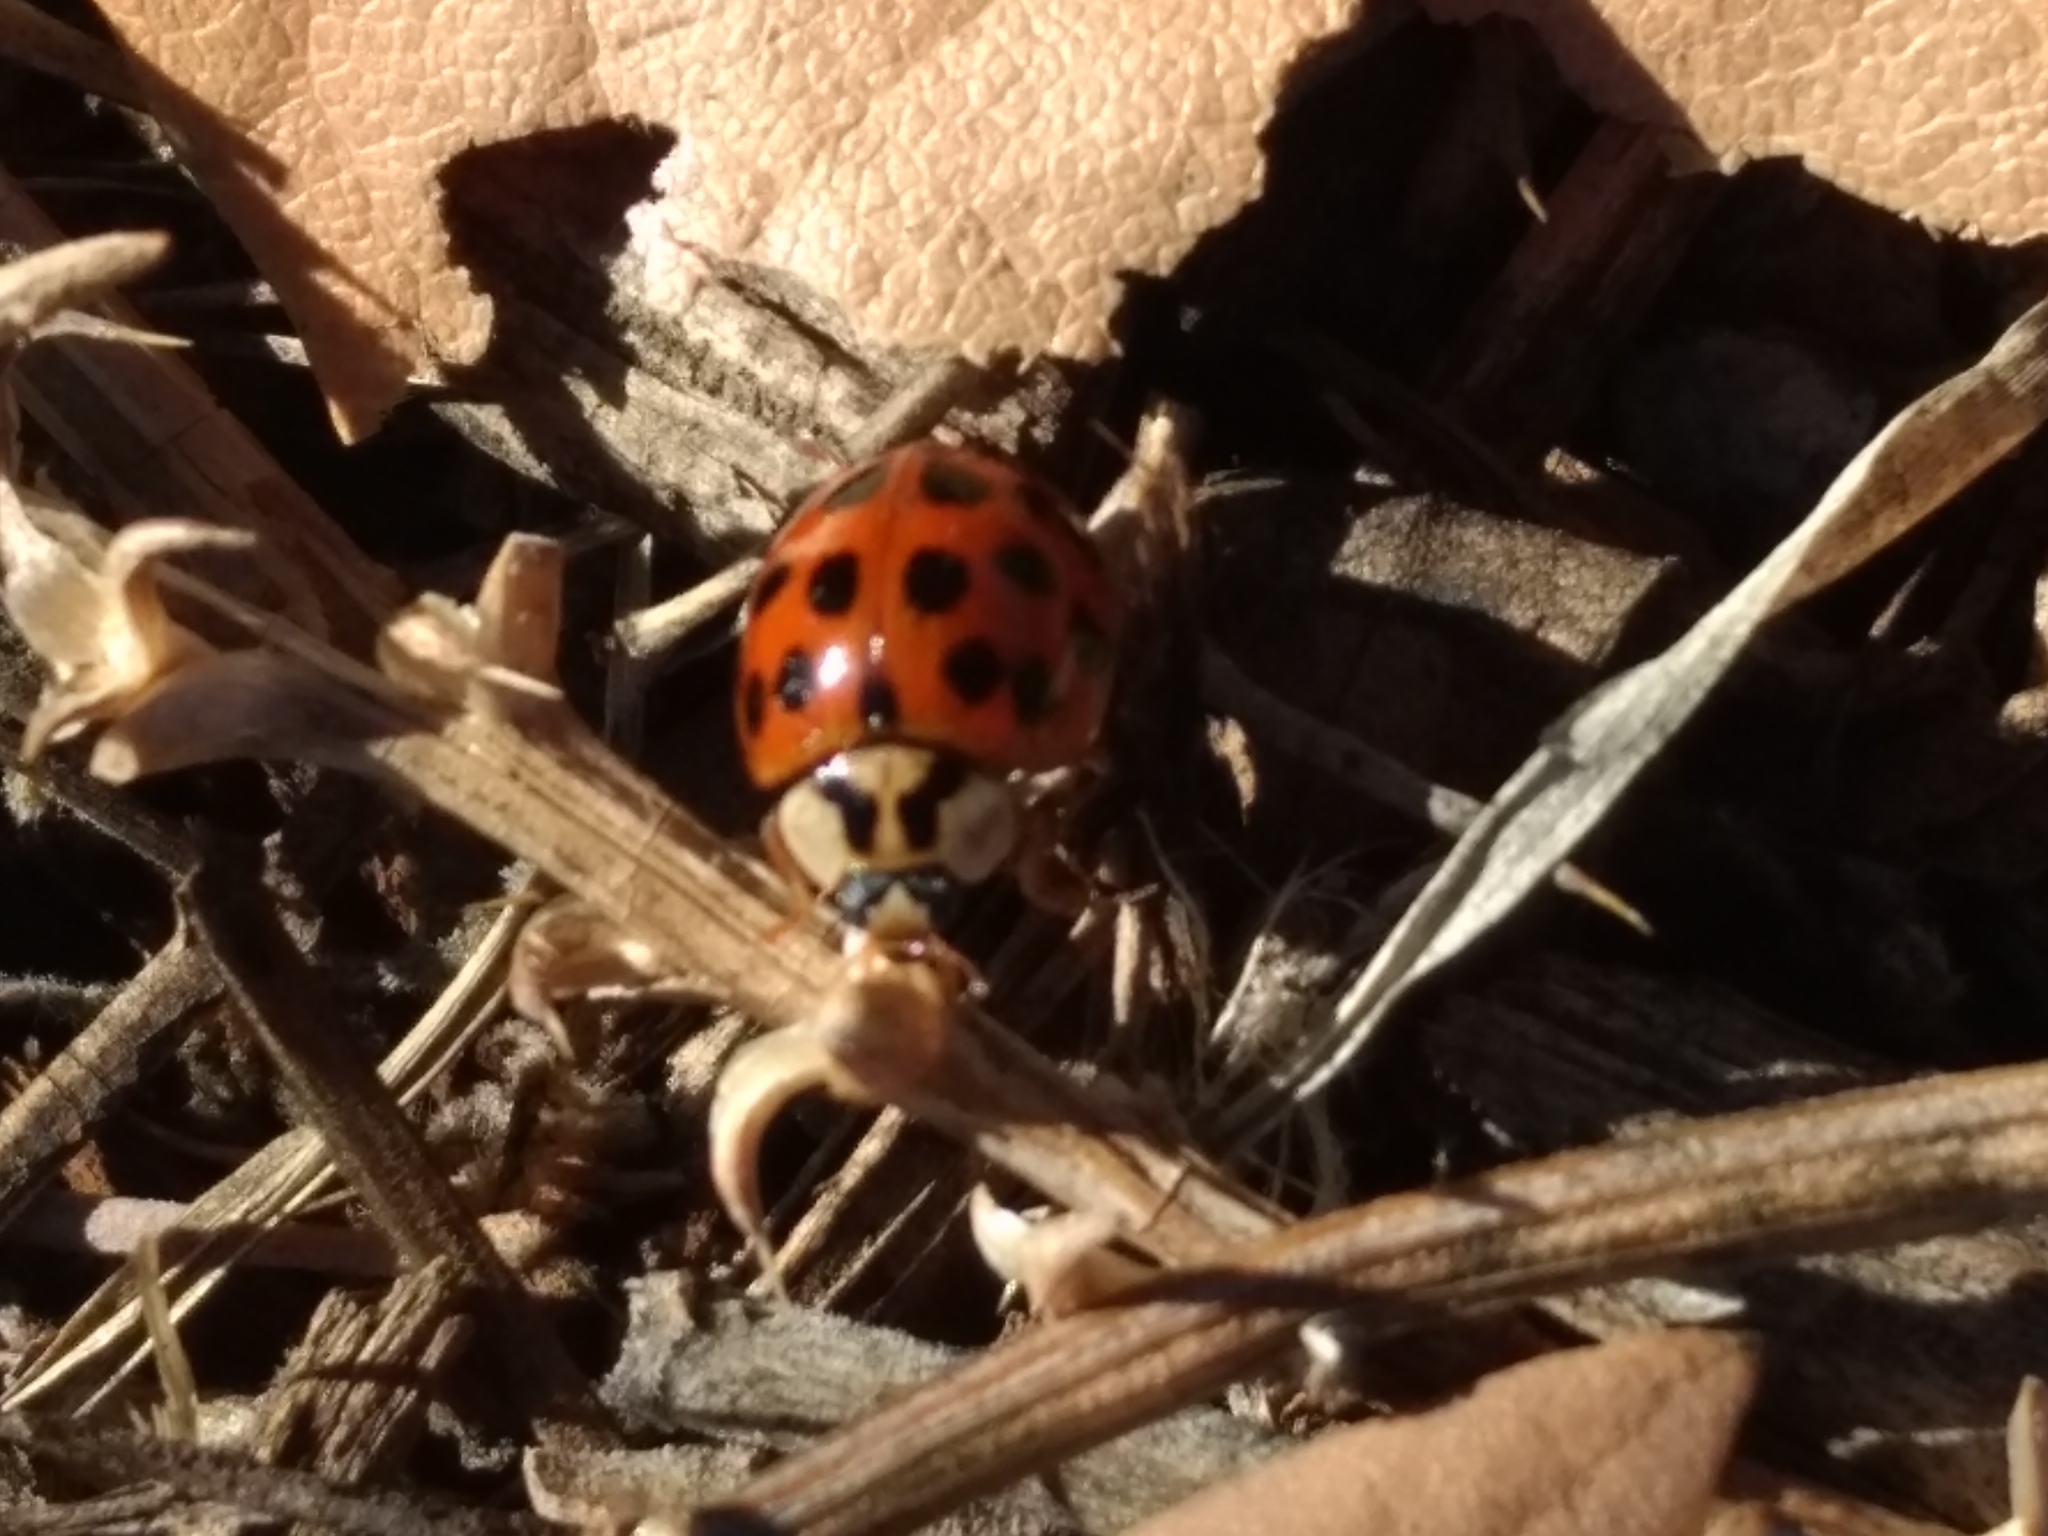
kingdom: Animalia
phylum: Arthropoda
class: Insecta
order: Coleoptera
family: Coccinellidae
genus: Harmonia
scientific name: Harmonia axyridis
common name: Harlequin ladybird
